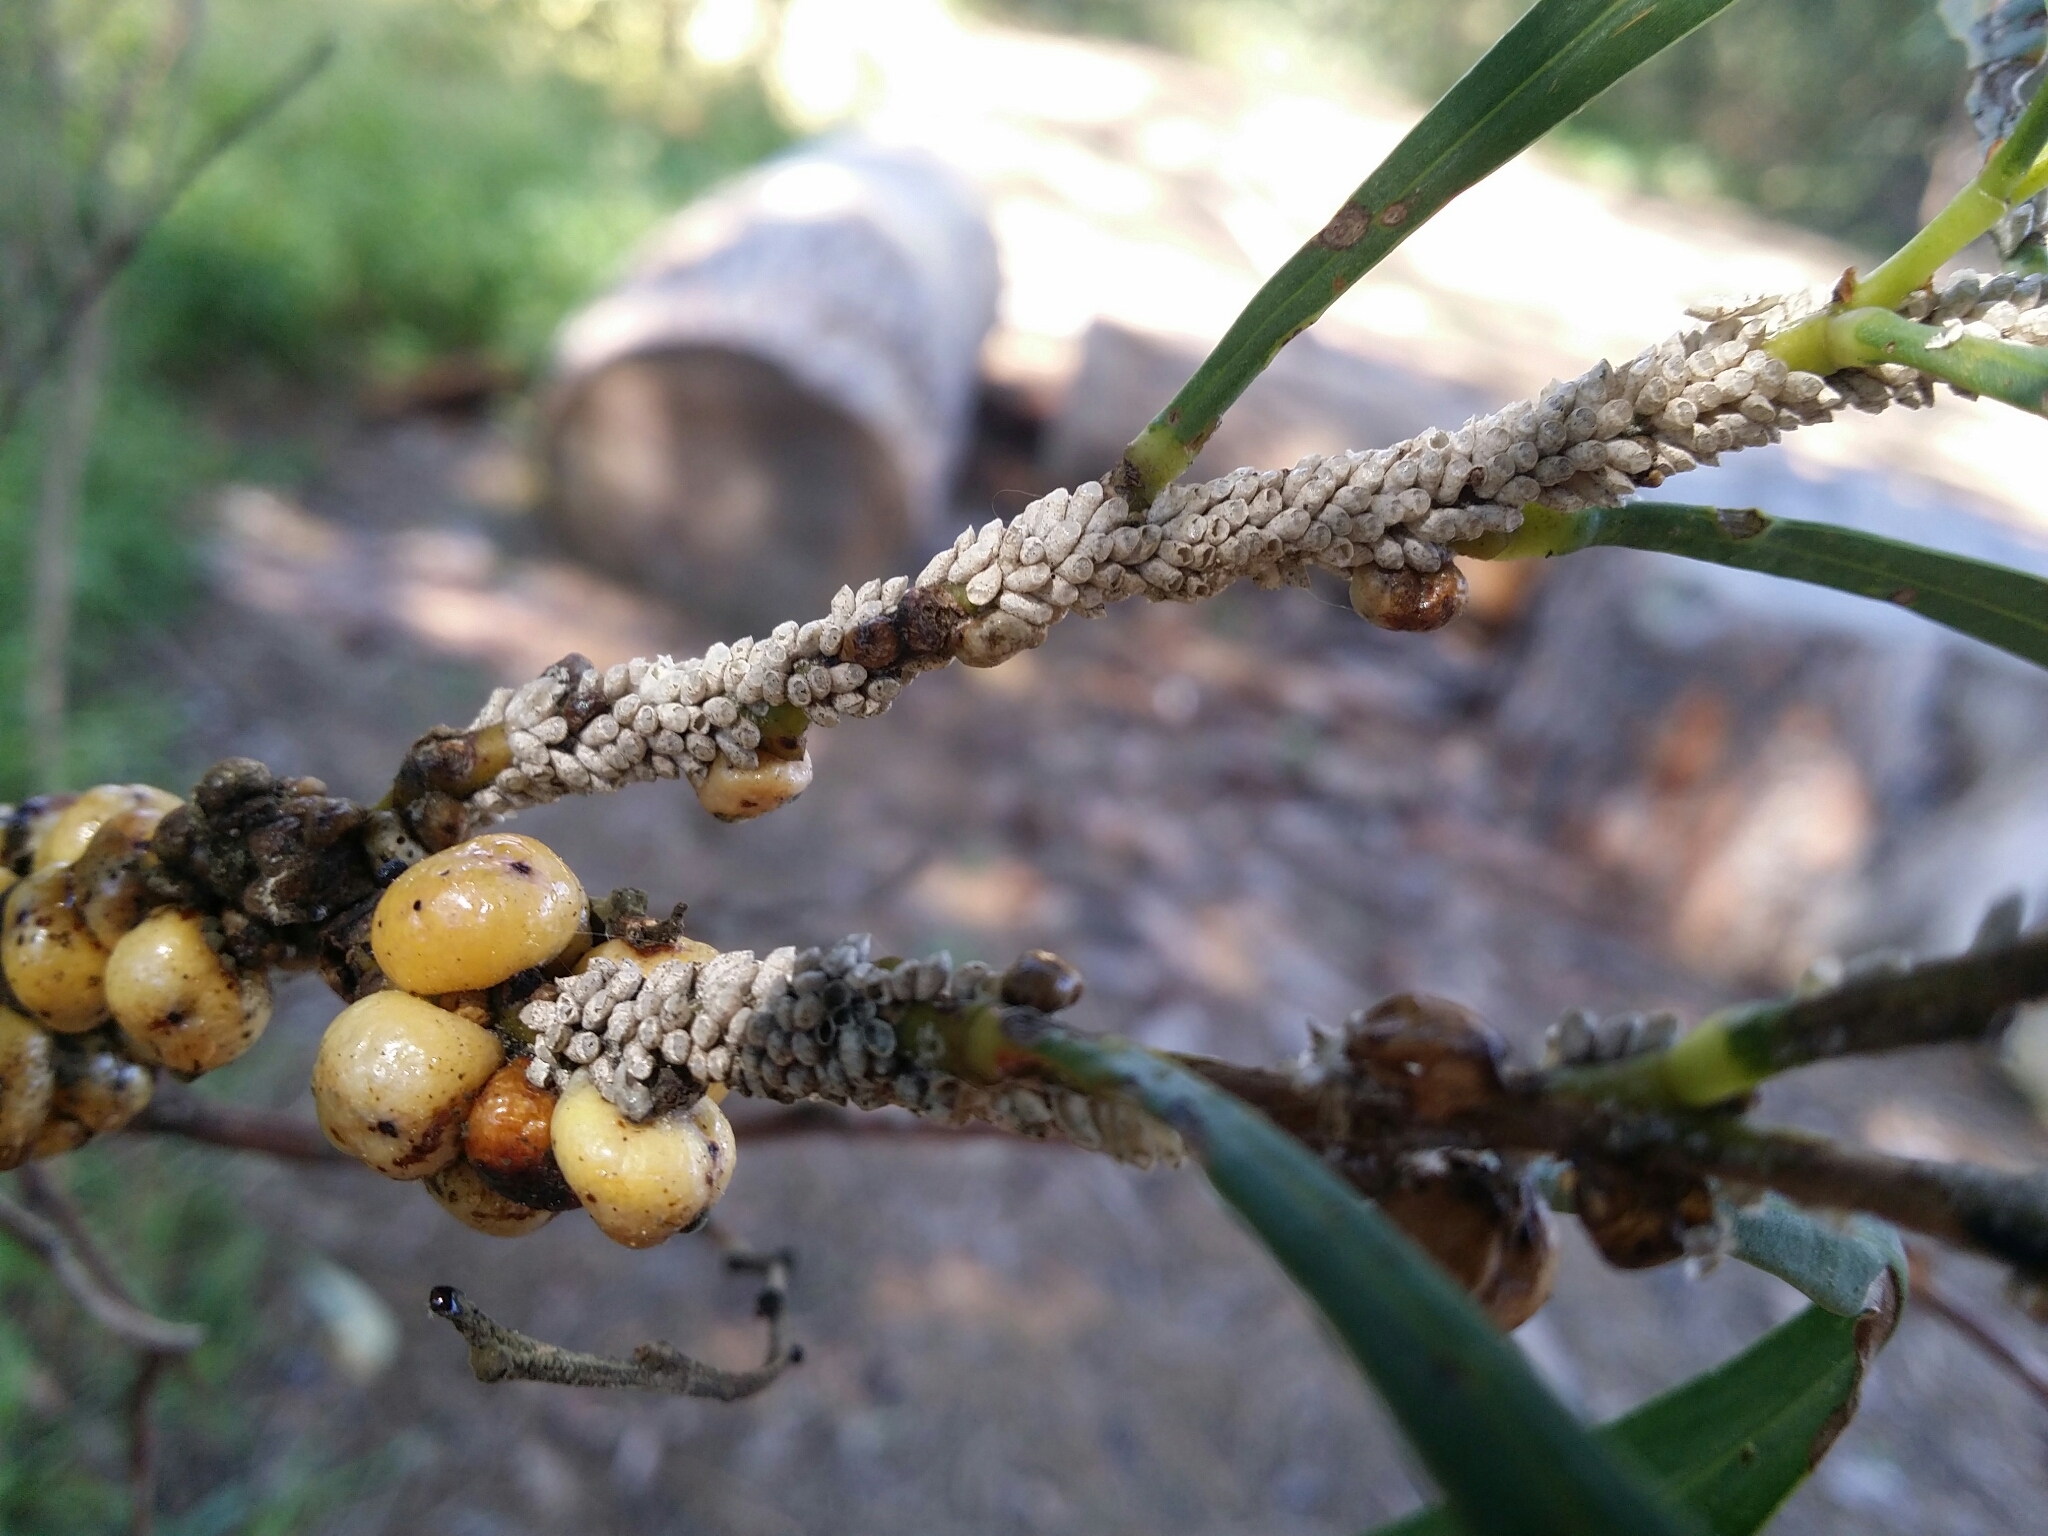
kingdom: Animalia
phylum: Arthropoda
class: Insecta
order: Hemiptera
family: Coccidae
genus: Cryptes
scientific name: Cryptes baccatus
